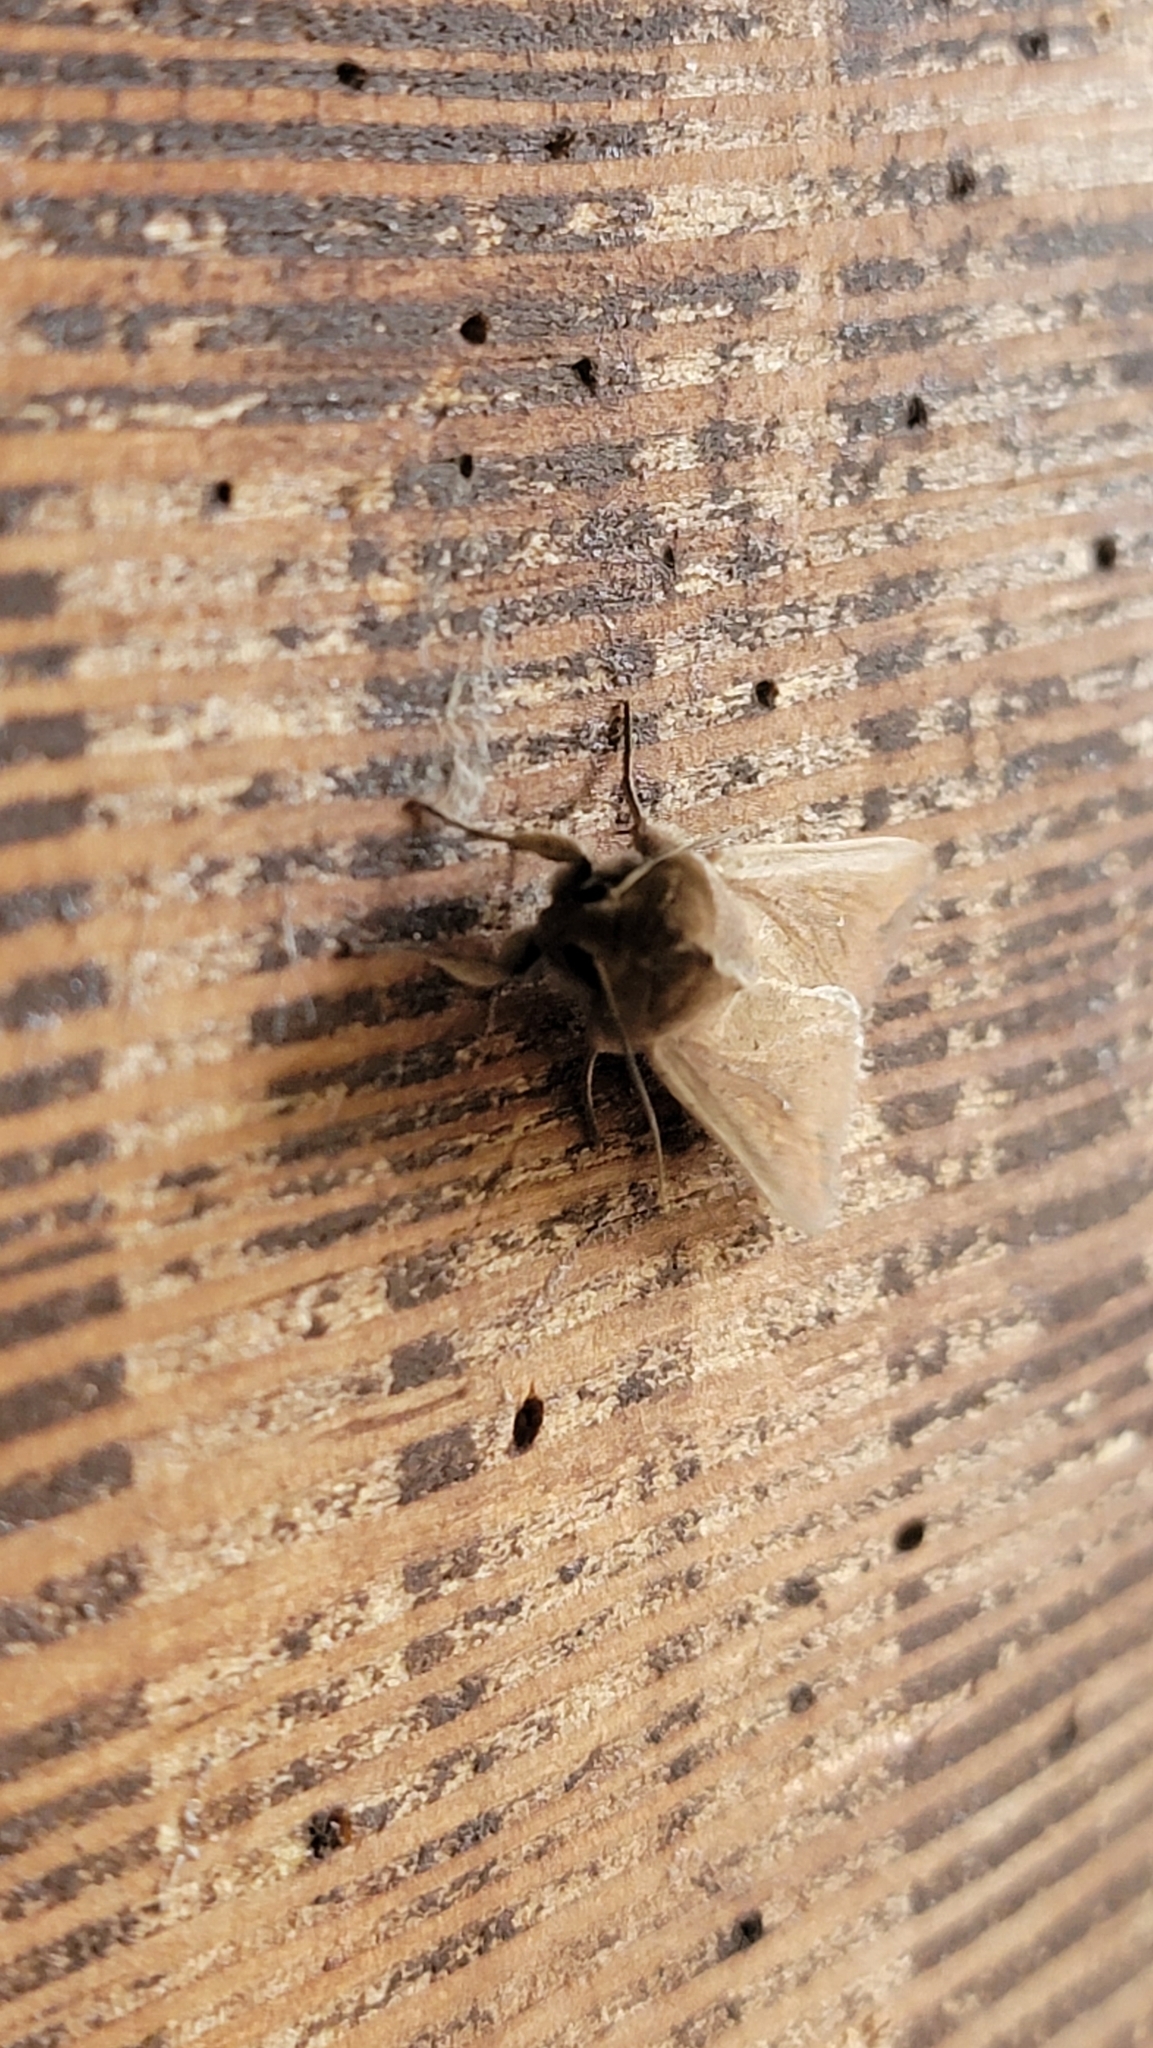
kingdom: Animalia
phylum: Arthropoda
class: Insecta
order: Lepidoptera
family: Noctuidae
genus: Mythimna
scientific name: Mythimna unipuncta
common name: White-speck
